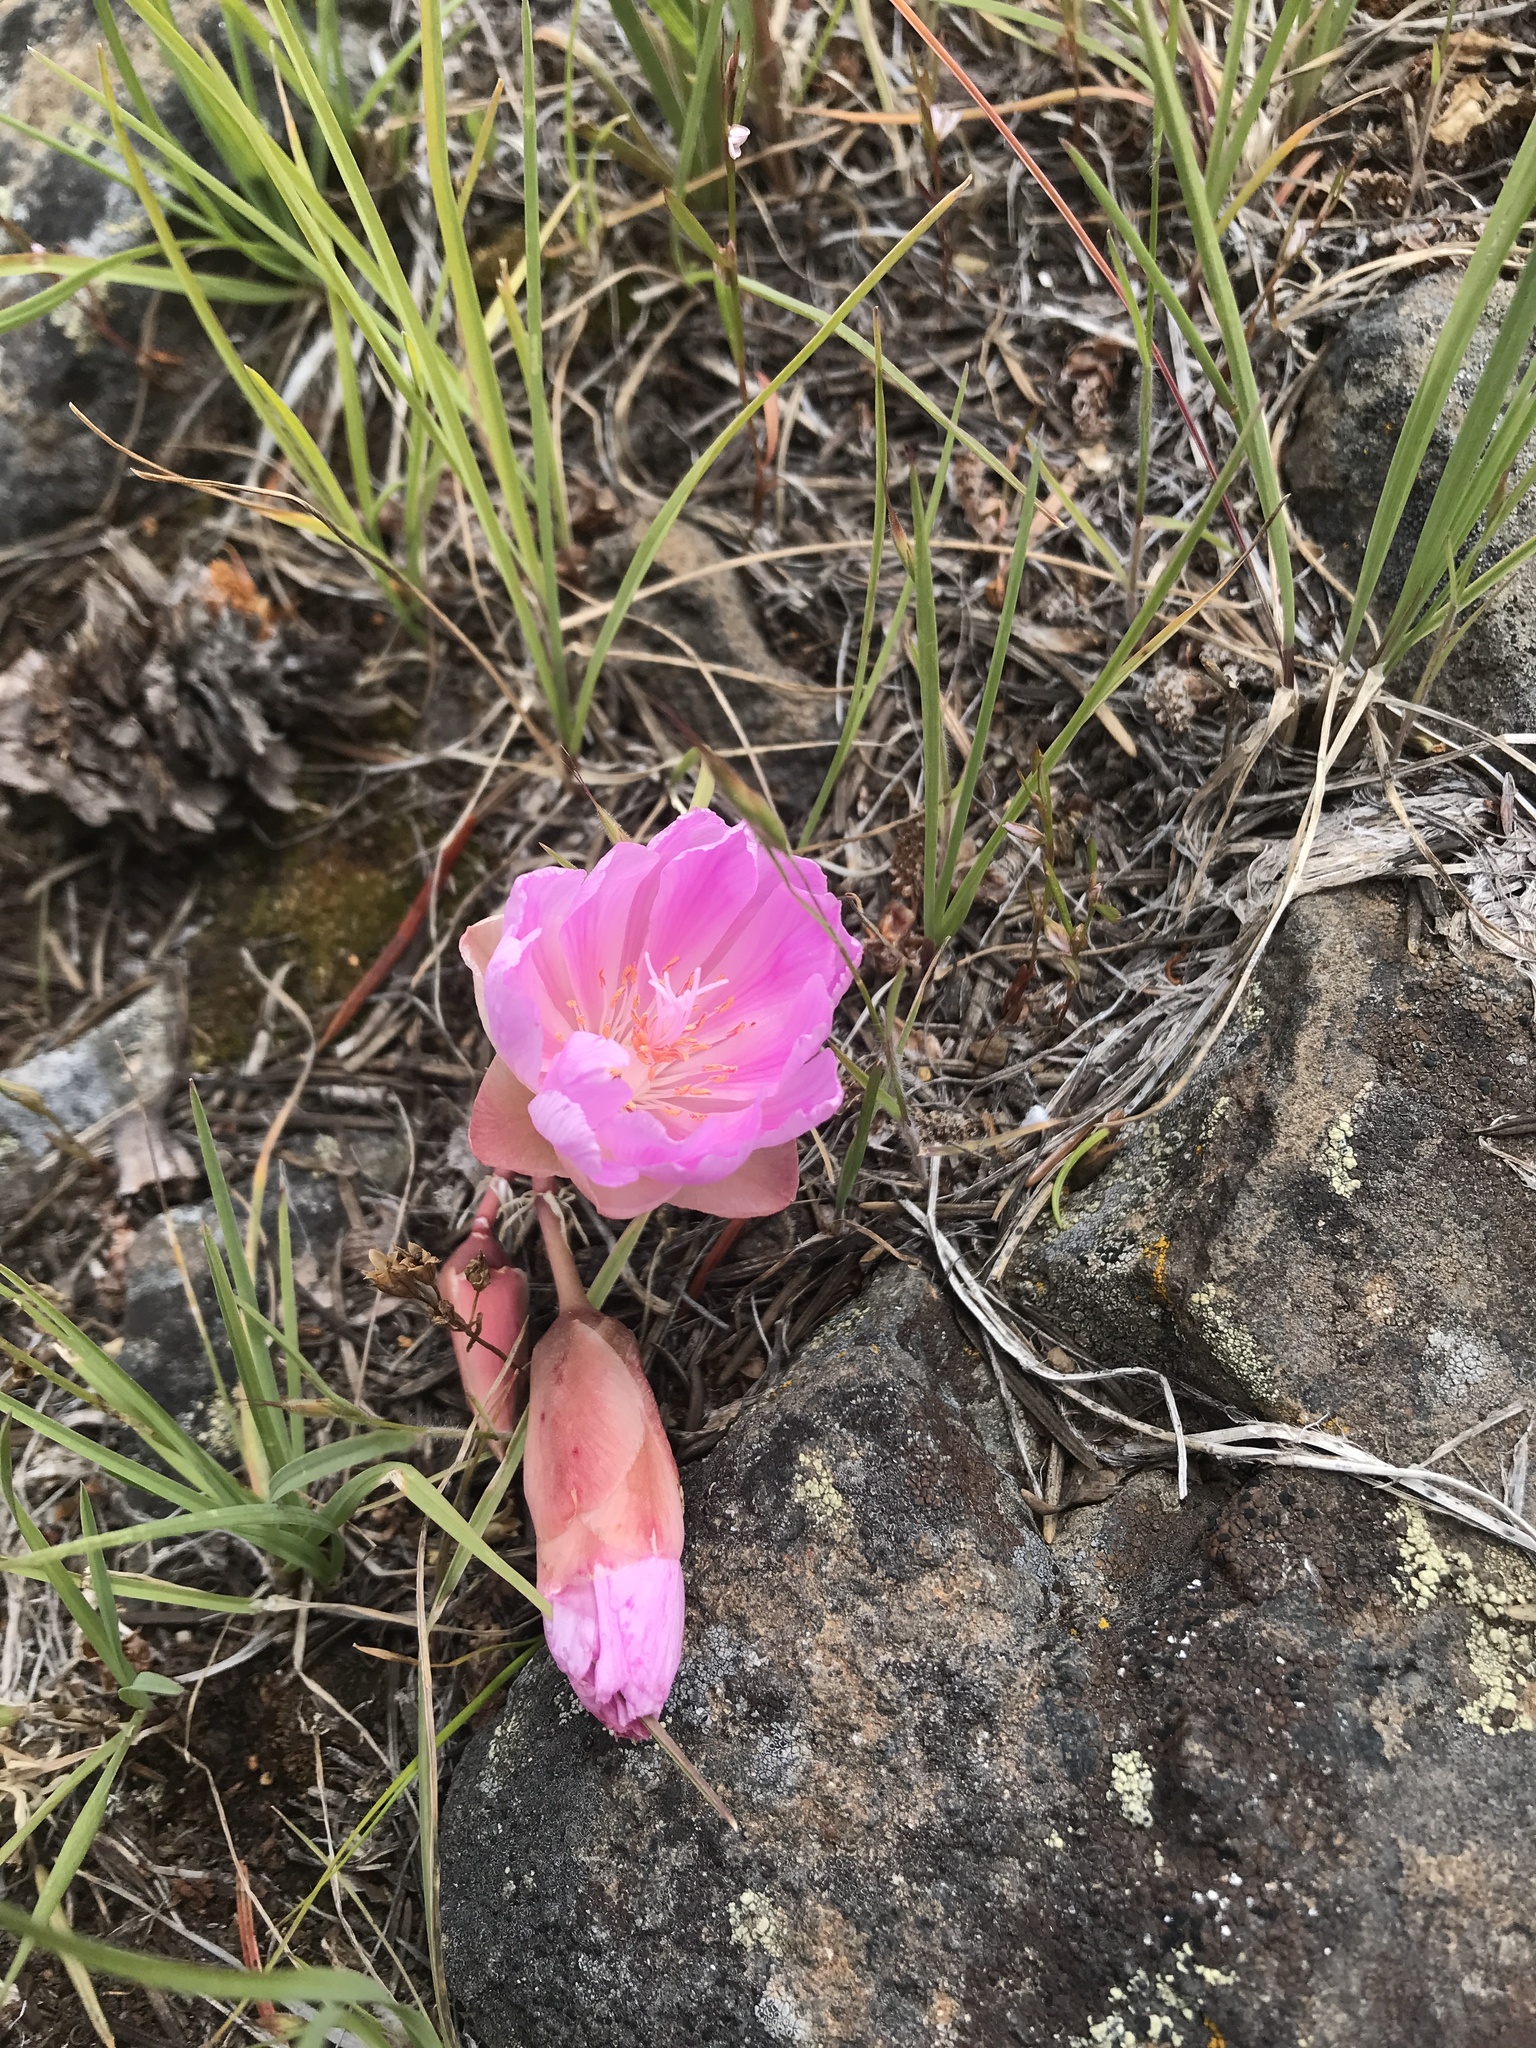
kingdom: Plantae
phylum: Tracheophyta
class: Magnoliopsida
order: Caryophyllales
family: Montiaceae
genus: Lewisia
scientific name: Lewisia rediviva
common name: Bitter-root
